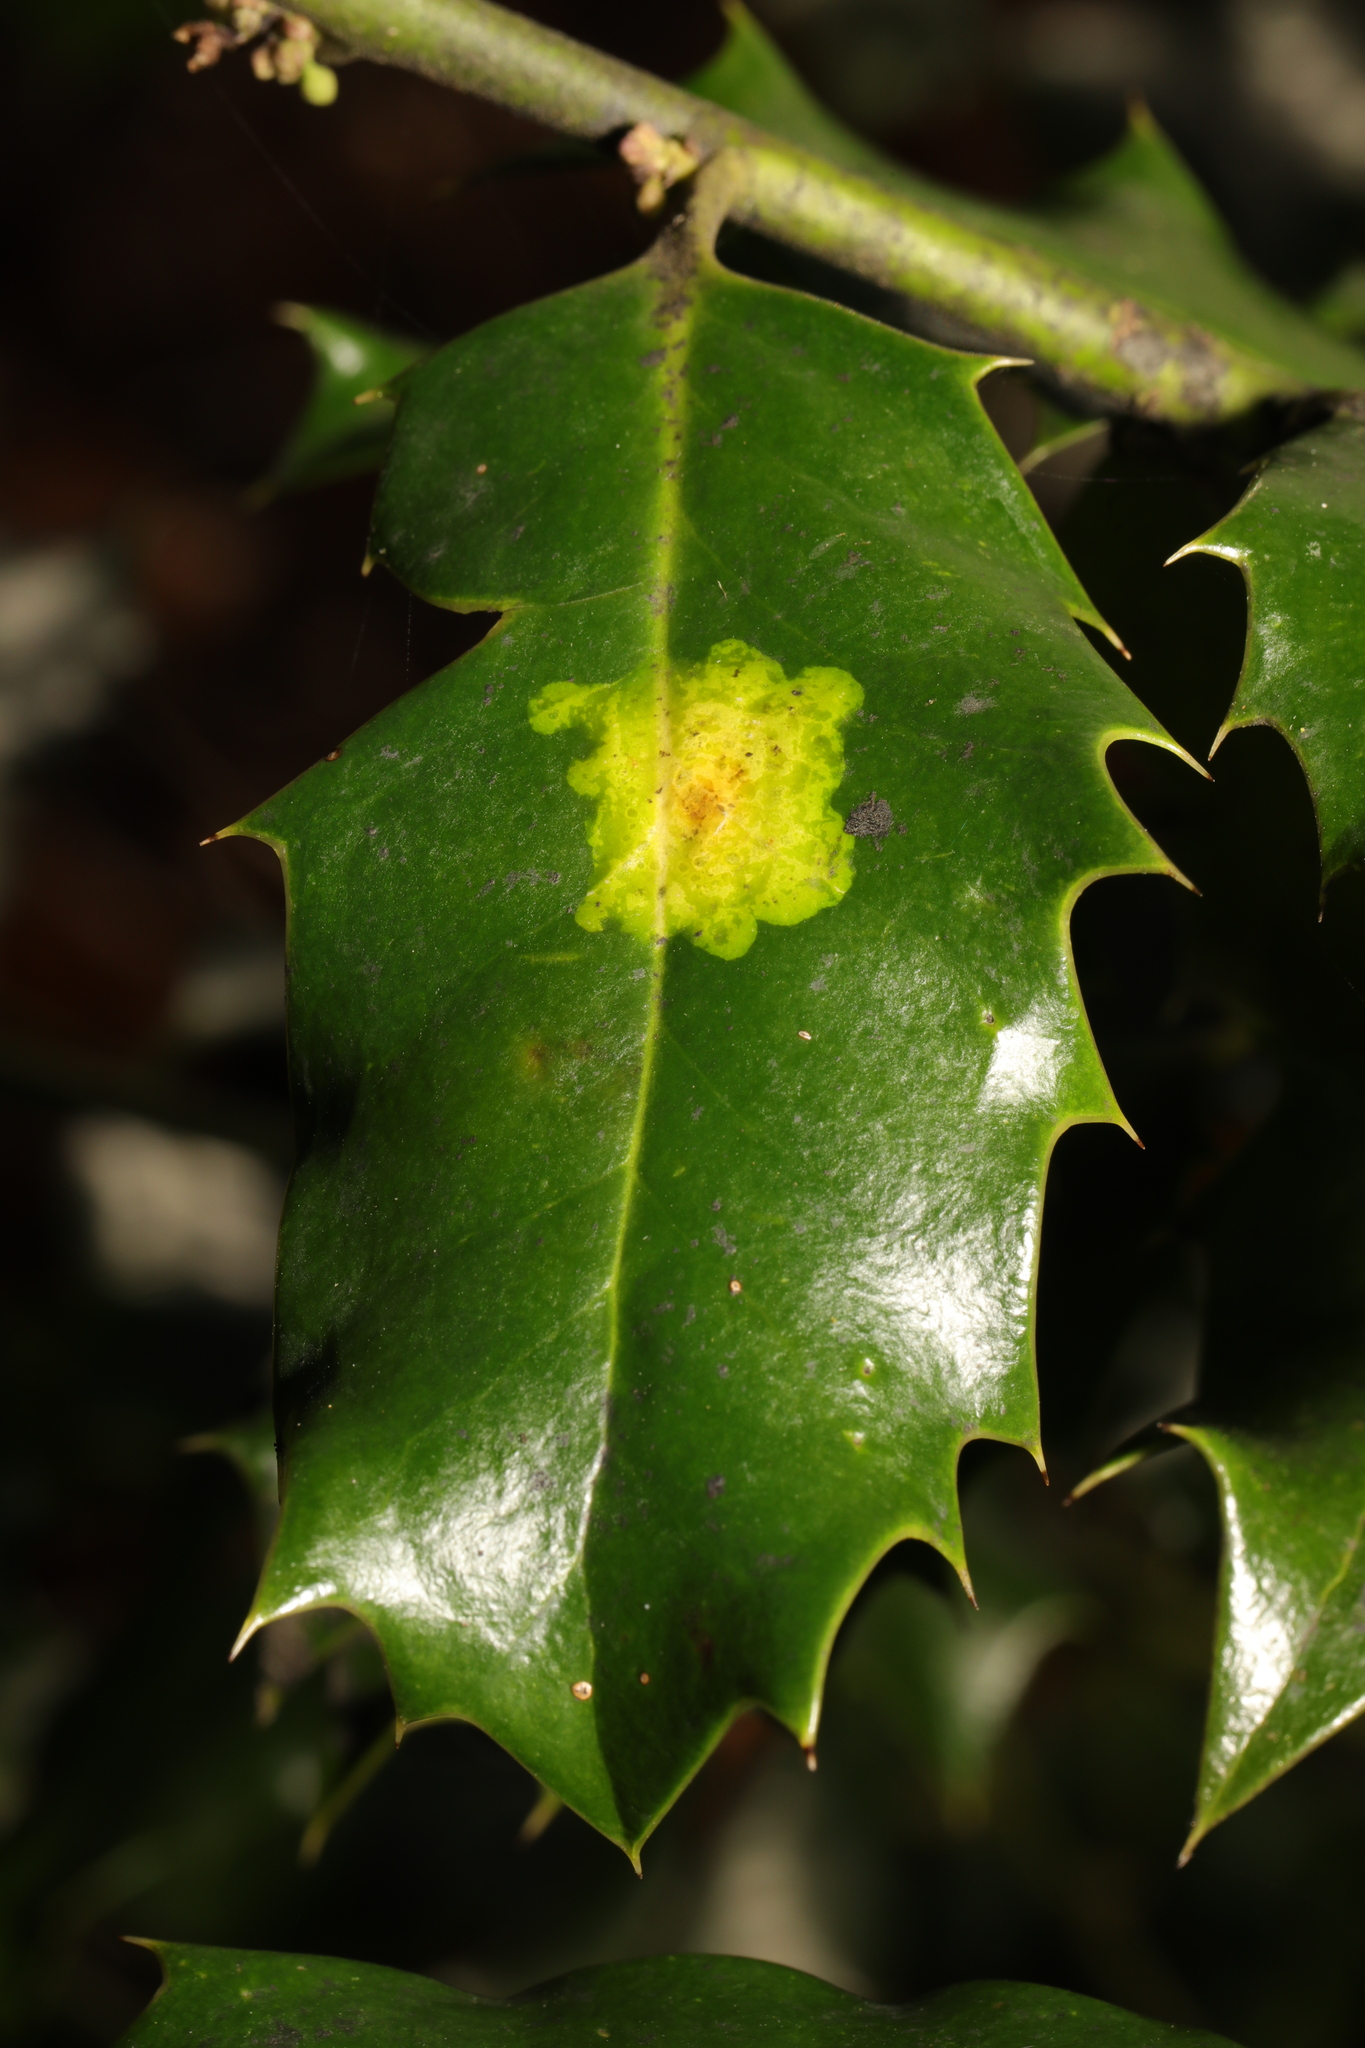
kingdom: Animalia
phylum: Arthropoda
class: Insecta
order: Diptera
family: Agromyzidae
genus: Phytomyza
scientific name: Phytomyza ilicis
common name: Holly leafminer
